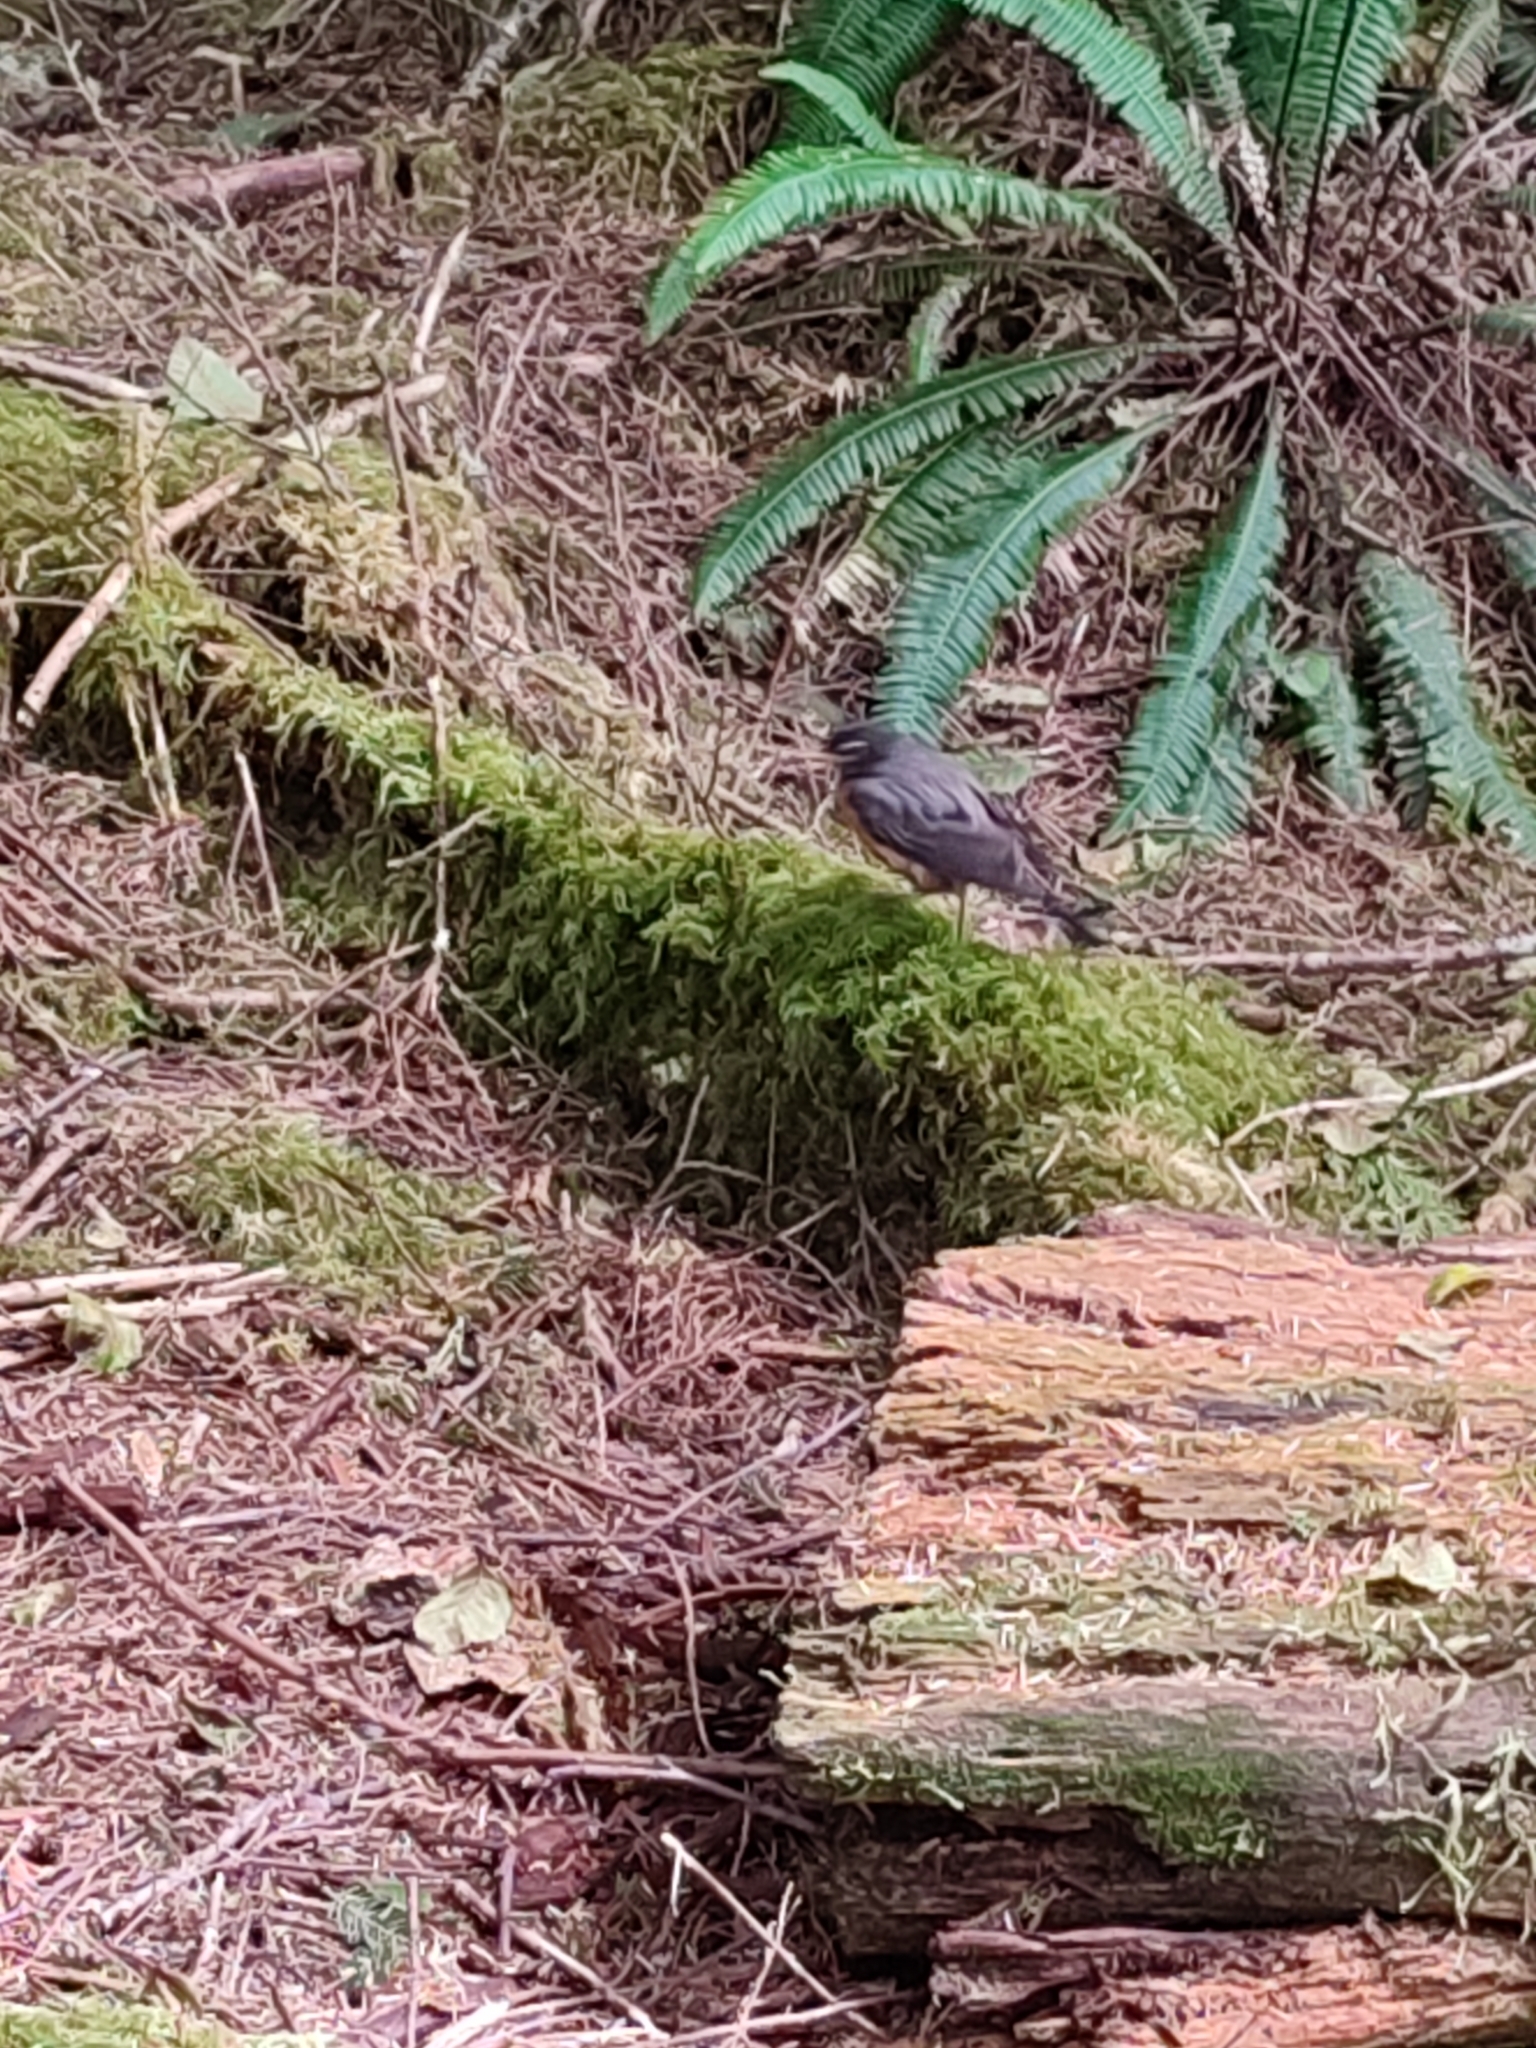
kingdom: Animalia
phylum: Chordata
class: Aves
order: Passeriformes
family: Turdidae
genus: Turdus
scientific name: Turdus migratorius
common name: American robin
